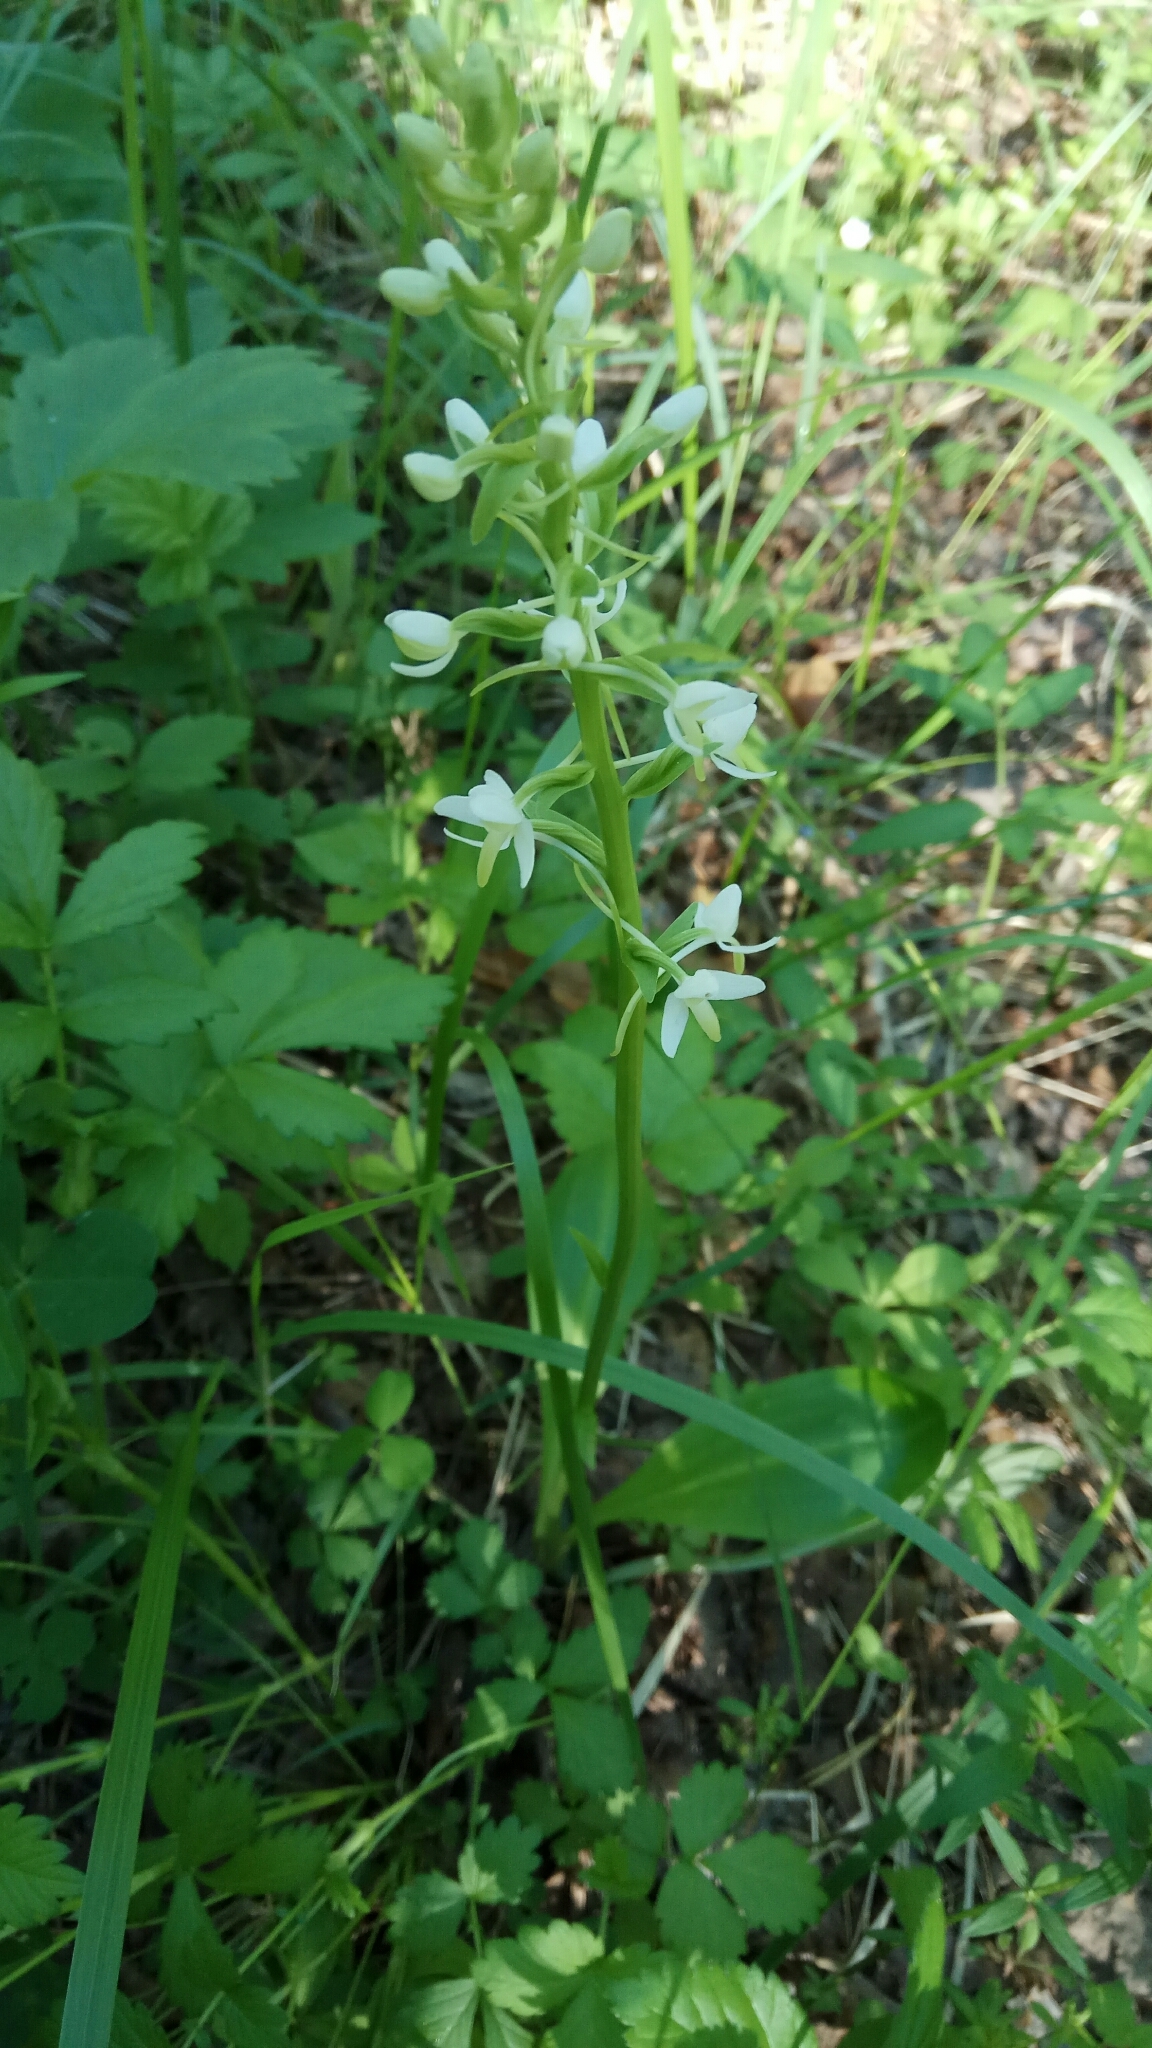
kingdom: Plantae
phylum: Tracheophyta
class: Liliopsida
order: Asparagales
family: Orchidaceae
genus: Platanthera
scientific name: Platanthera bifolia
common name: Lesser butterfly-orchid
